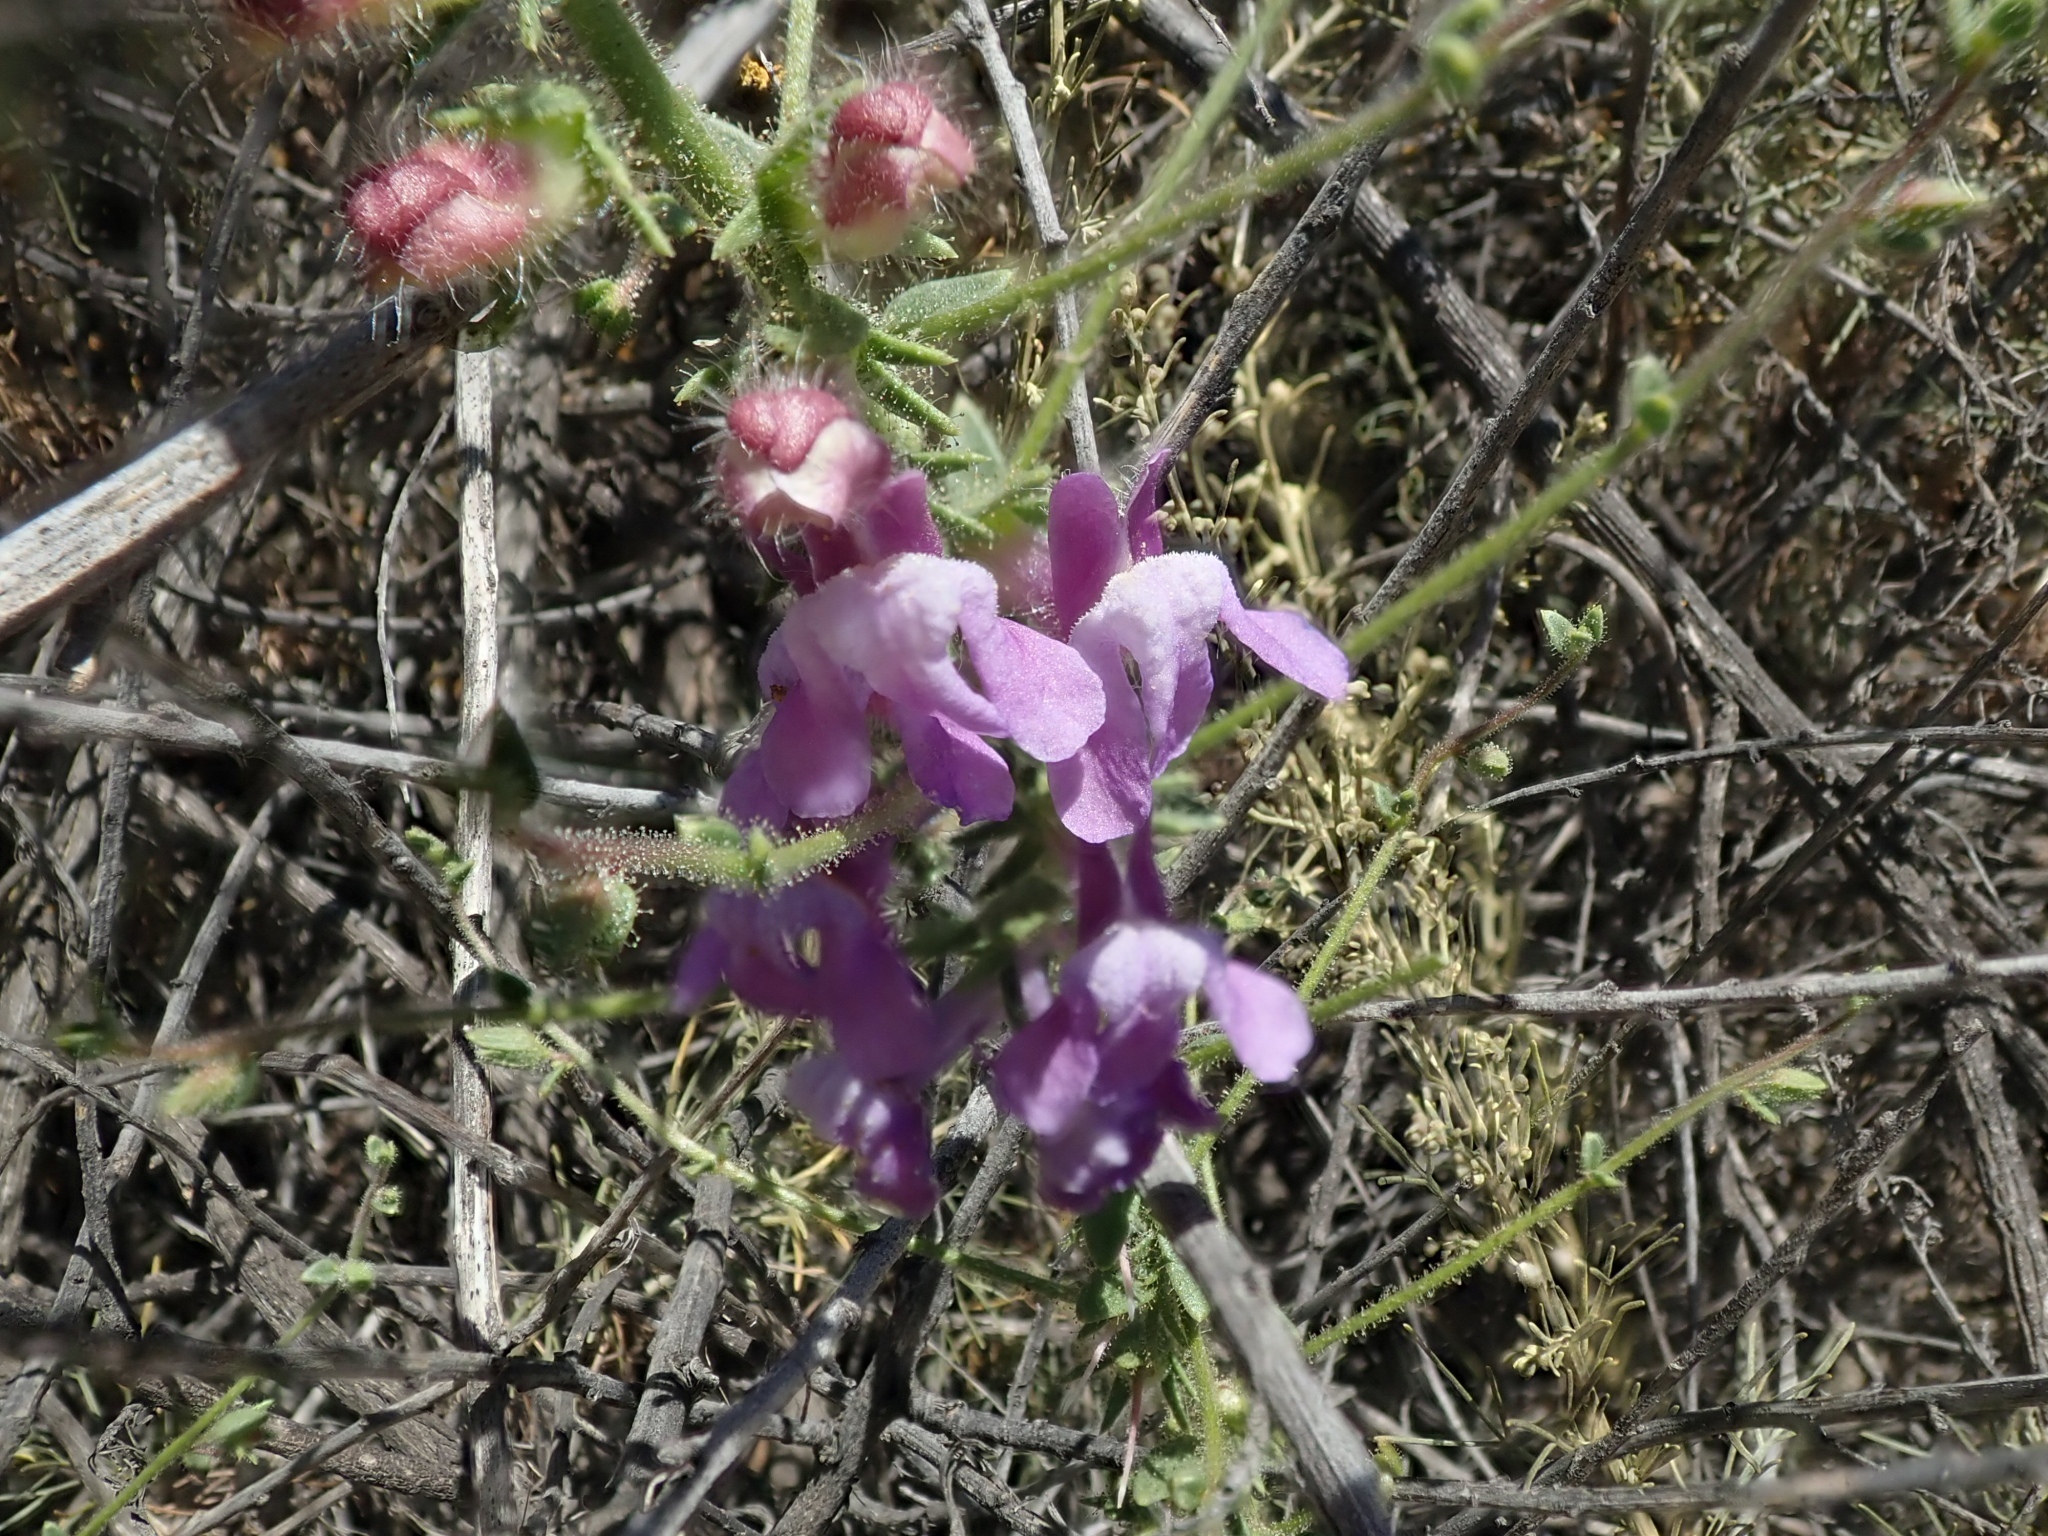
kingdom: Plantae
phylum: Tracheophyta
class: Magnoliopsida
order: Lamiales
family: Plantaginaceae
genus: Sairocarpus
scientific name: Sairocarpus vexillocalyculatus
